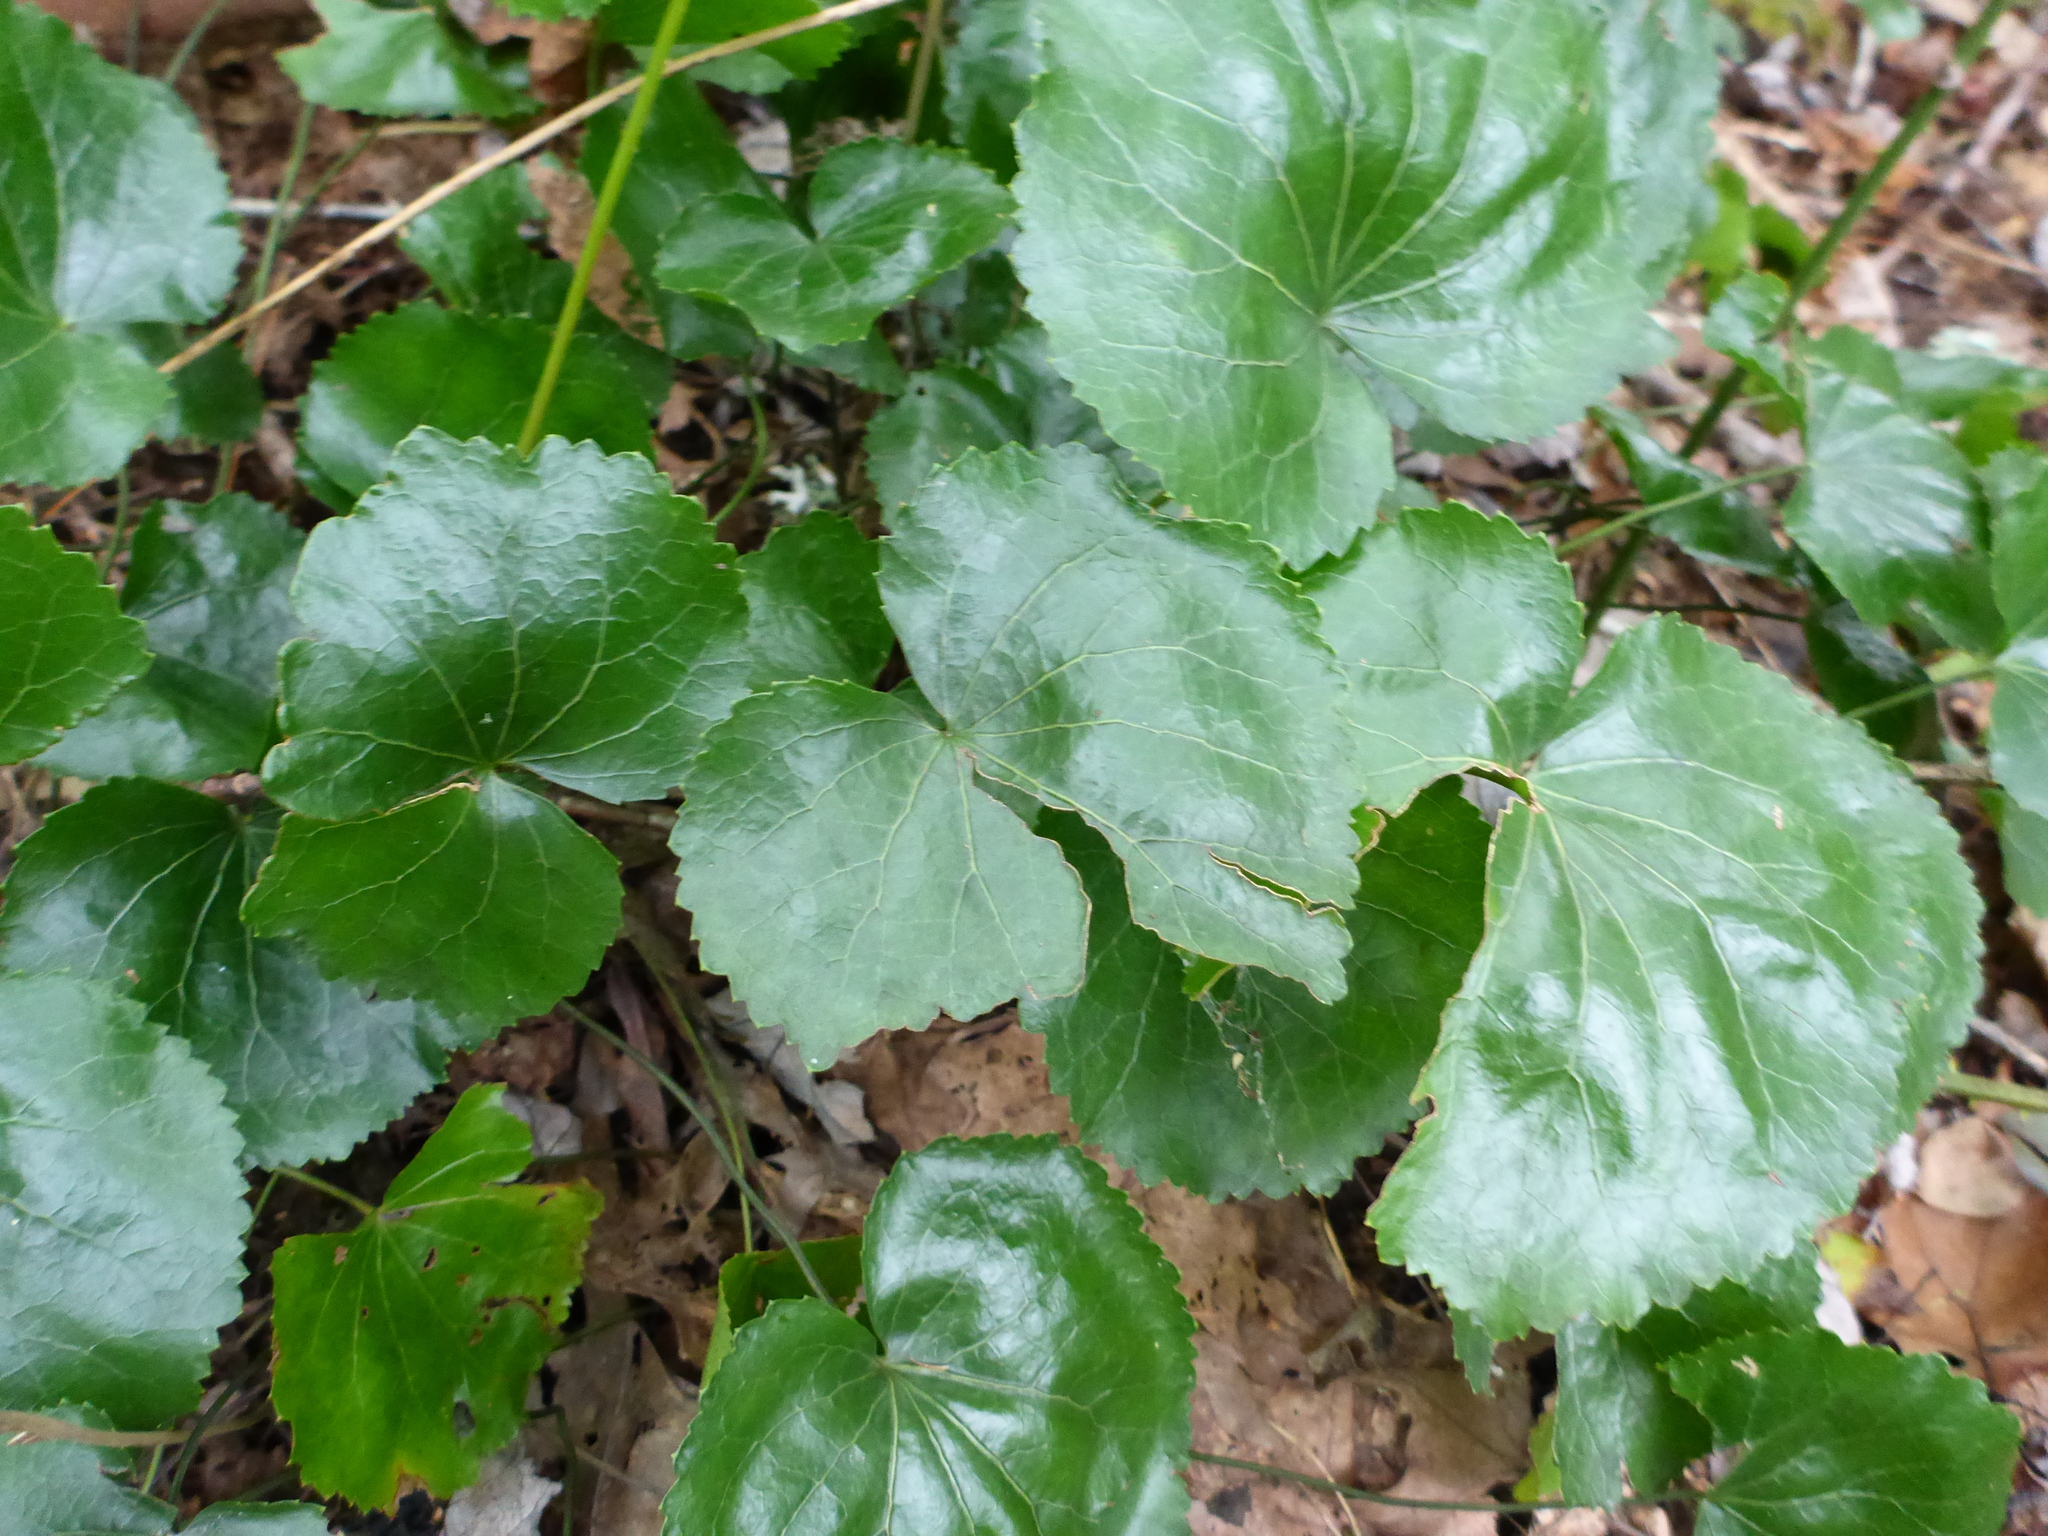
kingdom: Plantae
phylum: Tracheophyta
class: Magnoliopsida
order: Ericales
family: Diapensiaceae
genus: Galax
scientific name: Galax urceolata
